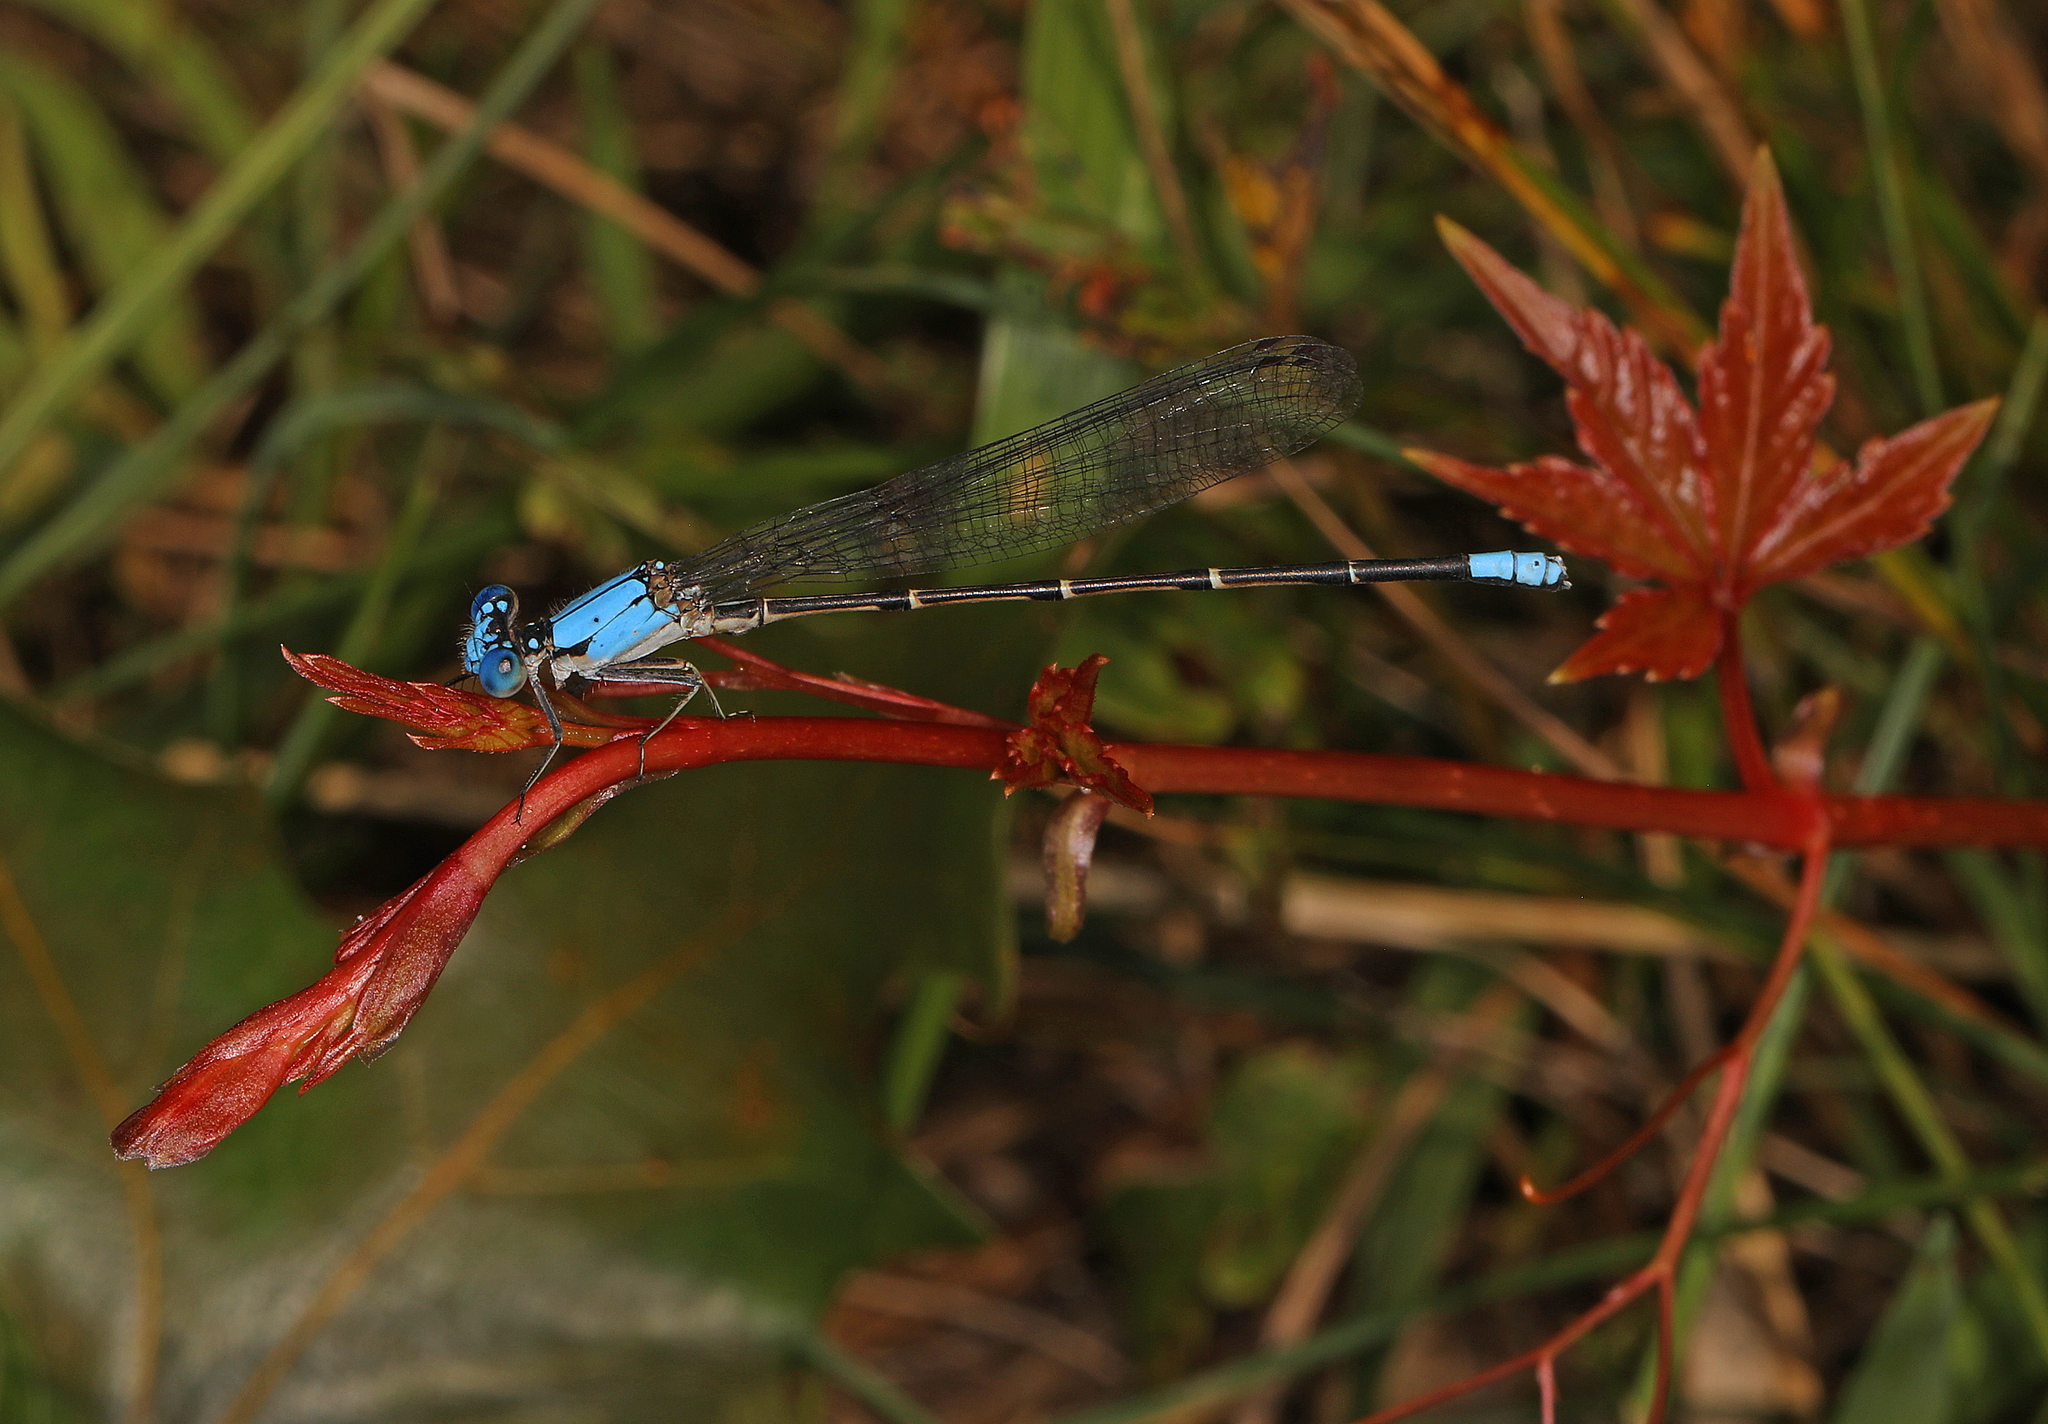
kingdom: Animalia
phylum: Arthropoda
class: Insecta
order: Odonata
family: Coenagrionidae
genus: Argia
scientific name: Argia apicalis
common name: Blue-fronted dancer
